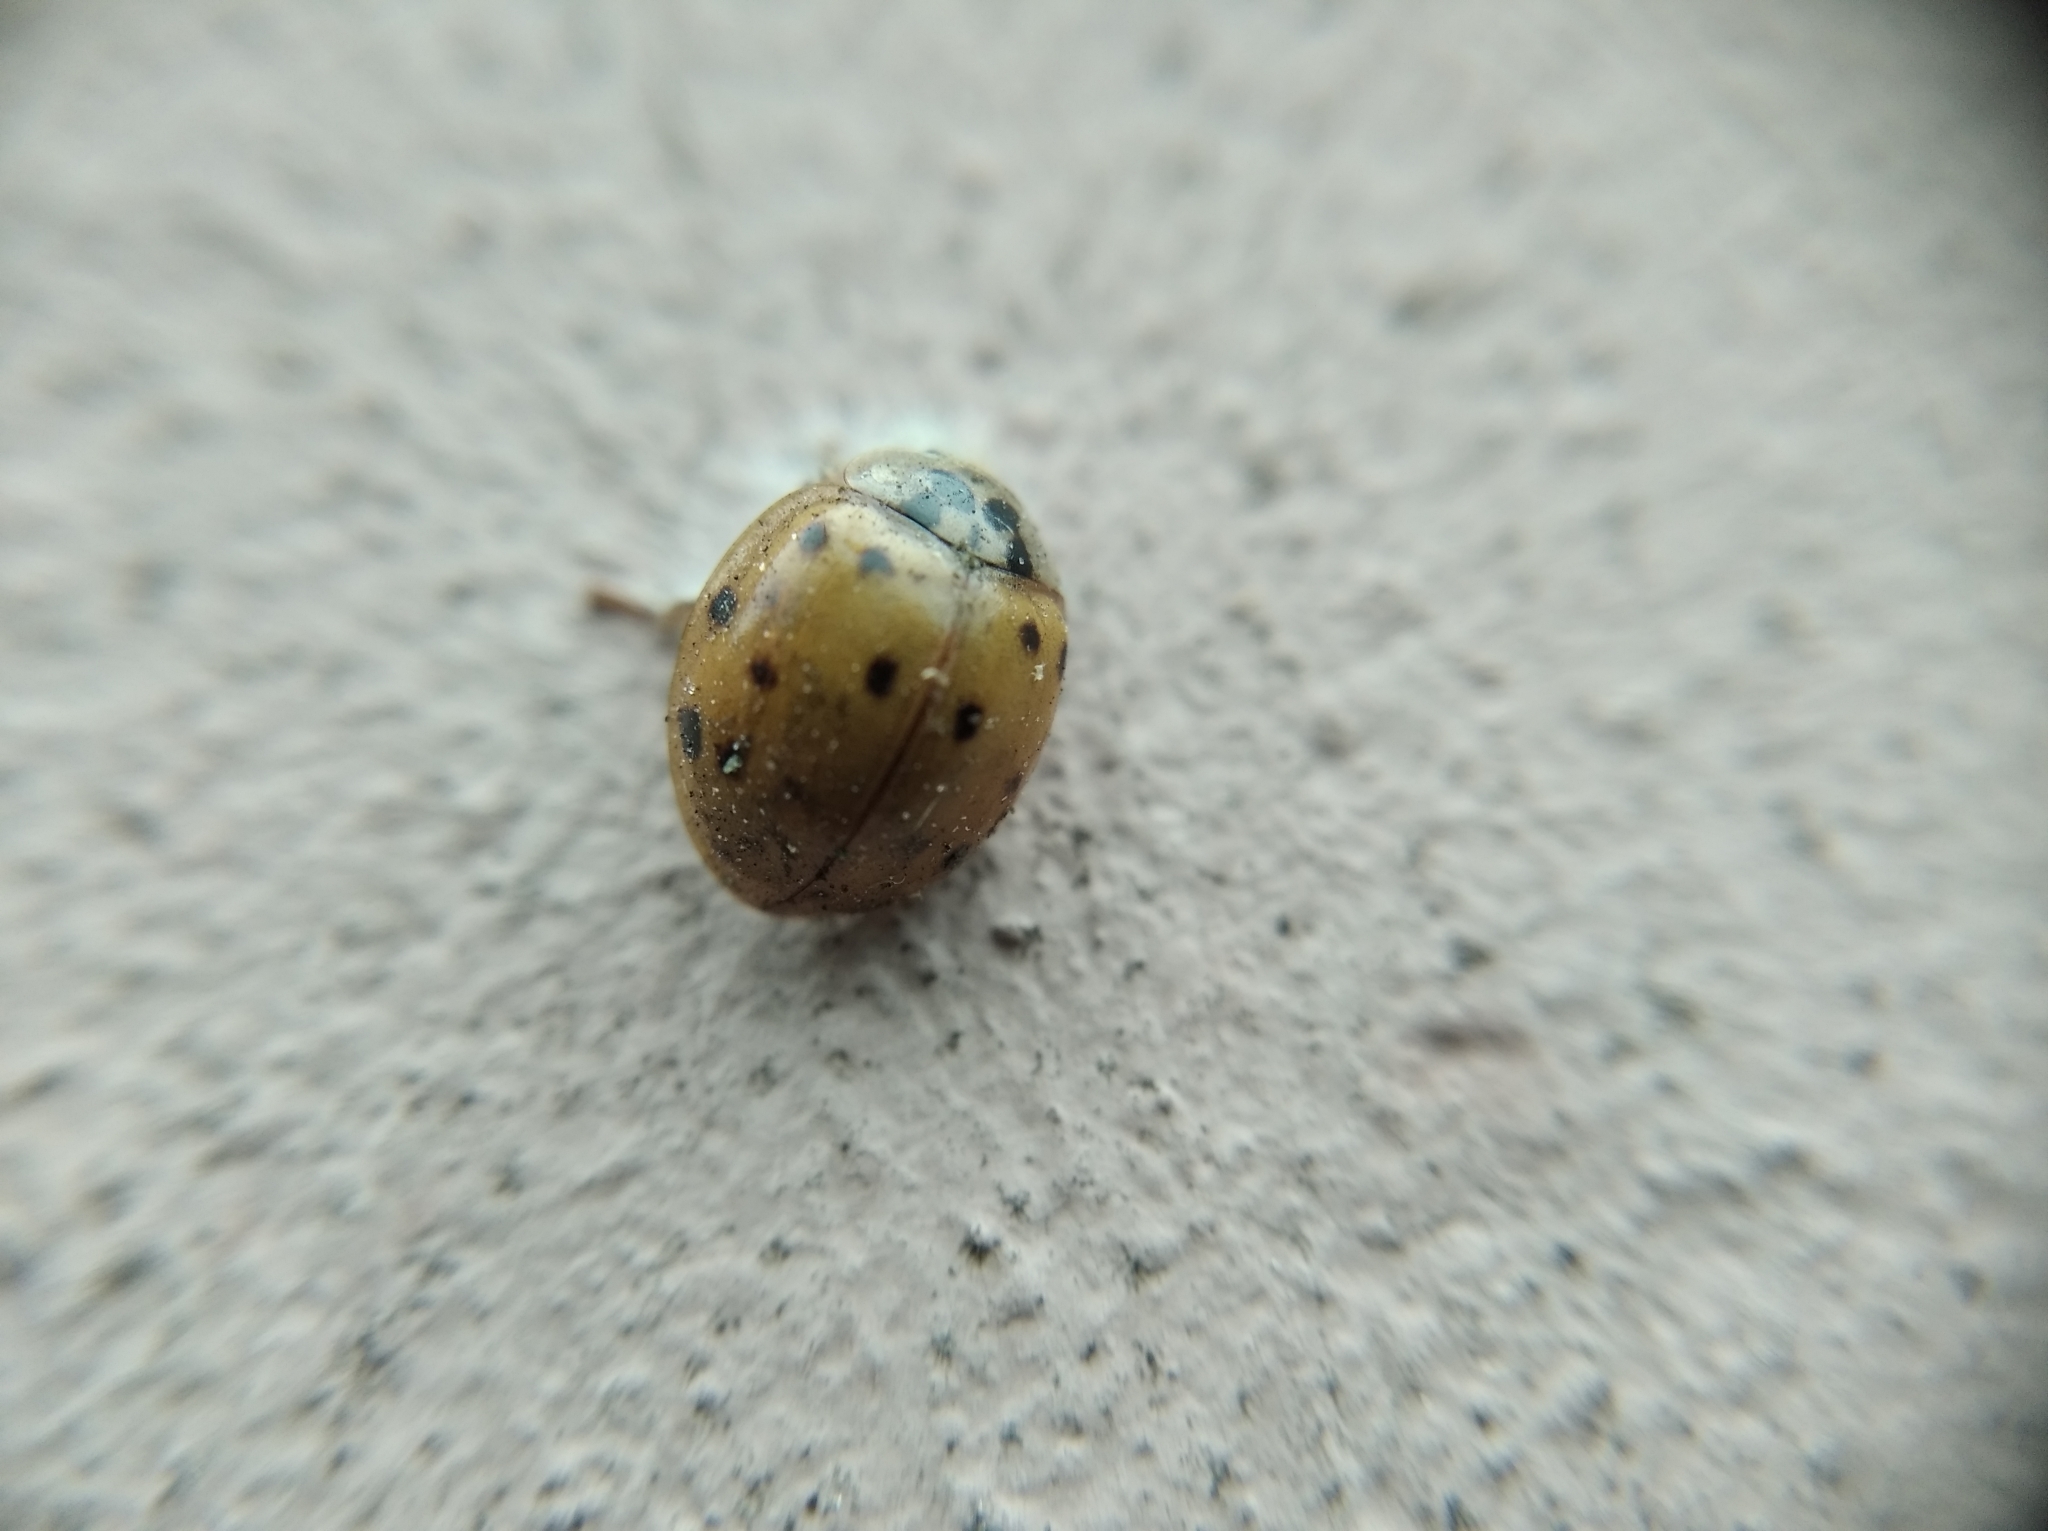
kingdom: Animalia
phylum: Arthropoda
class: Insecta
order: Coleoptera
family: Coccinellidae
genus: Harmonia
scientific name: Harmonia axyridis
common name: Harlequin ladybird
